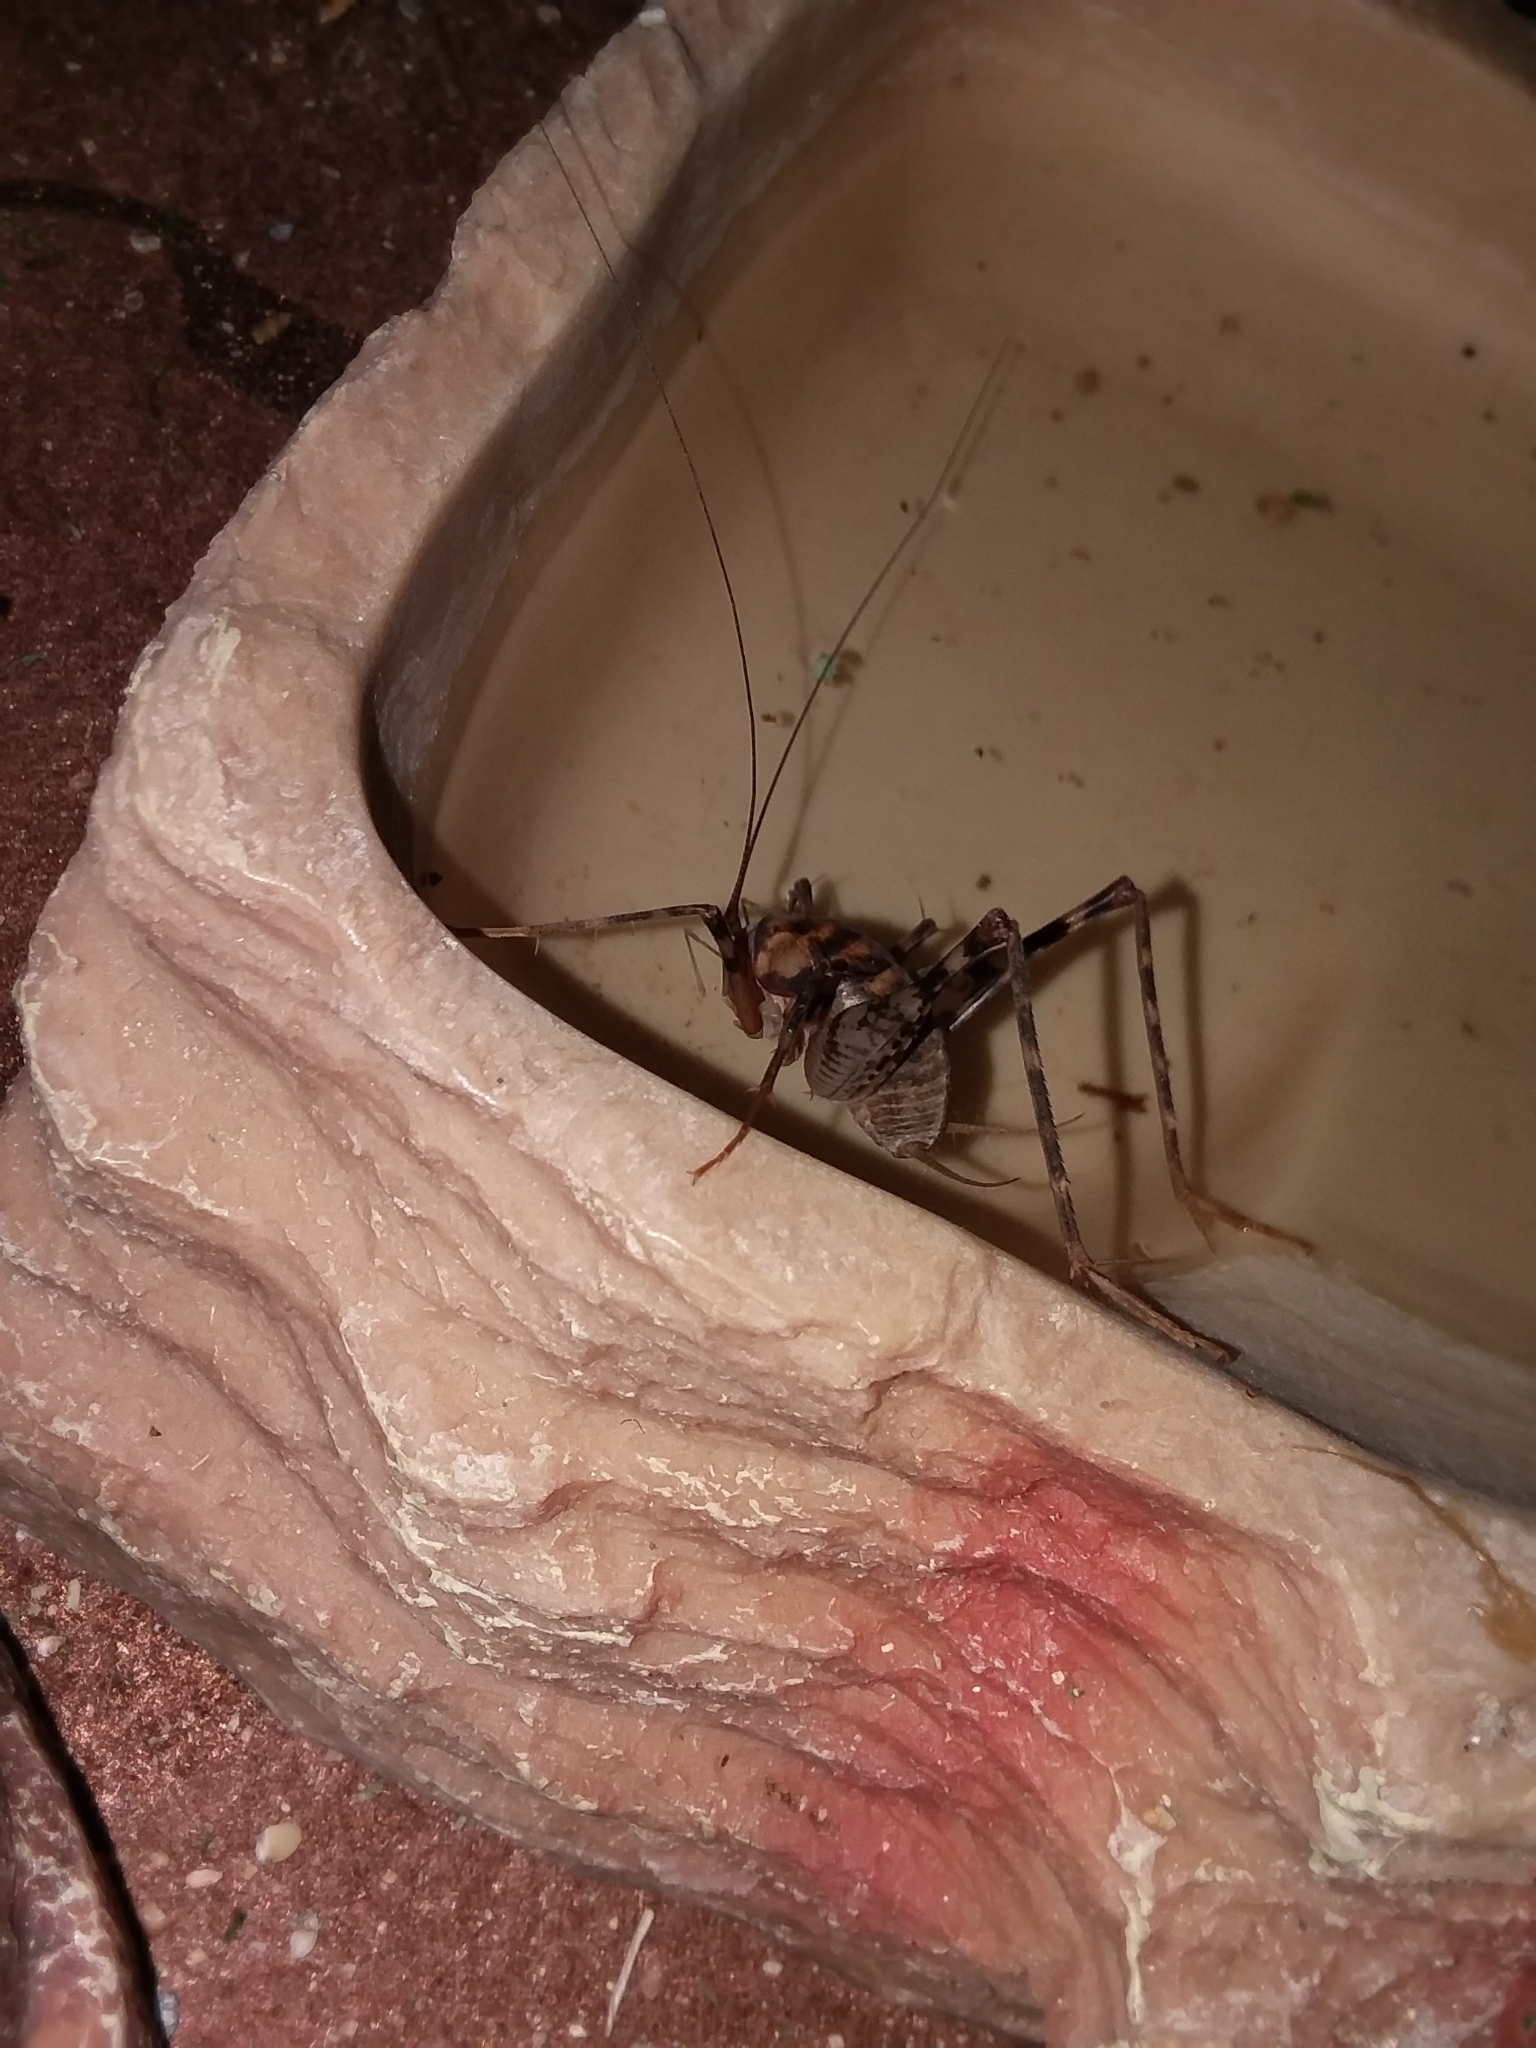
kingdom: Animalia
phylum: Arthropoda
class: Insecta
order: Orthoptera
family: Rhaphidophoridae
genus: Tachycines
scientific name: Tachycines asynamorus
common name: Greenhouse camel cricket
